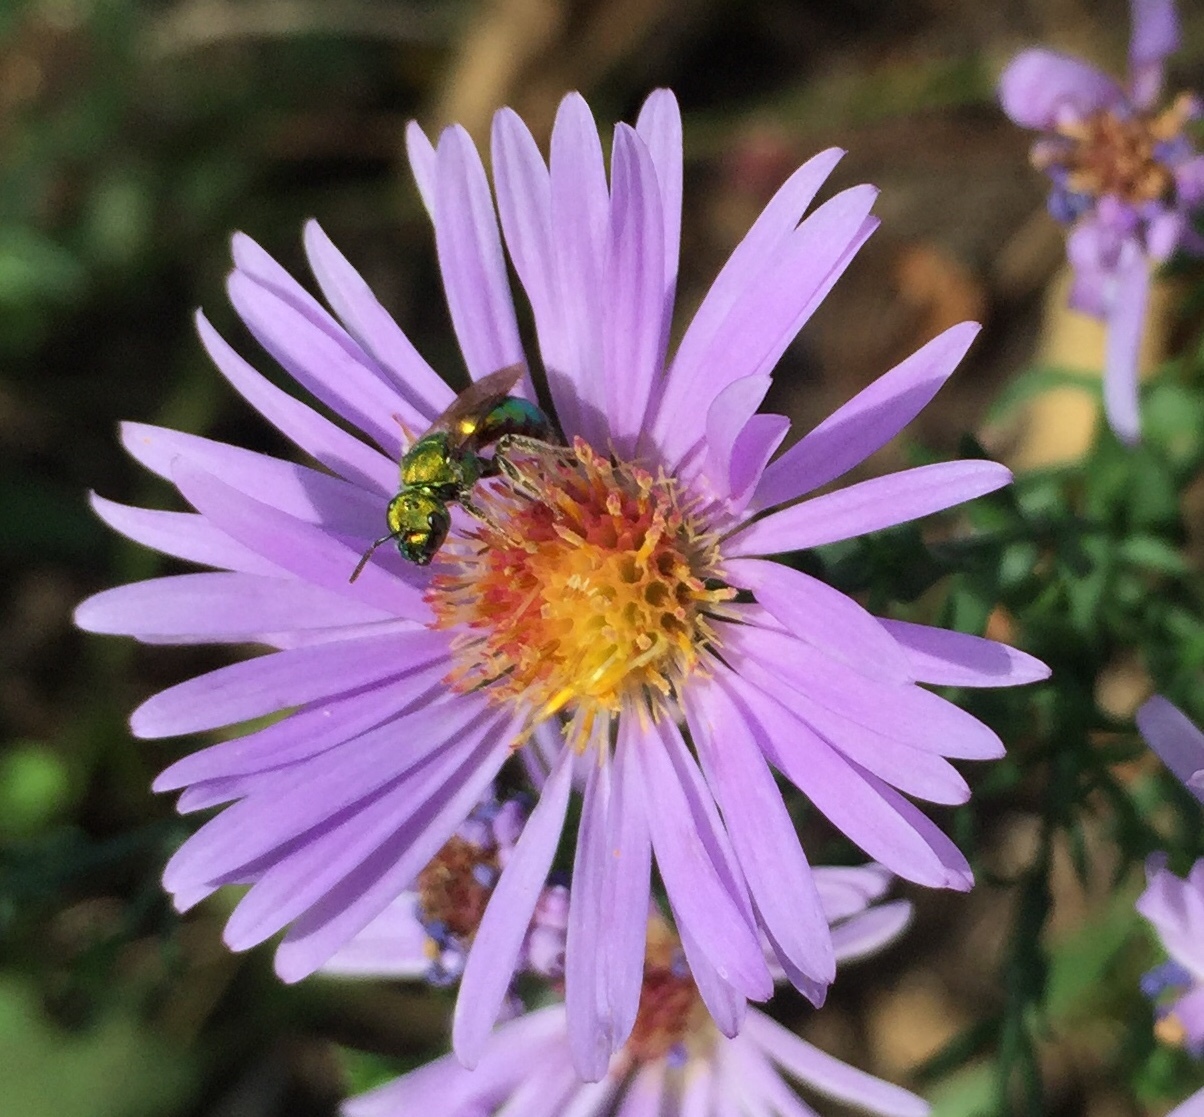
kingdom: Animalia
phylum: Arthropoda
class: Insecta
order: Hymenoptera
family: Halictidae
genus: Augochlora
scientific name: Augochlora pura
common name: Pure green sweat bee
